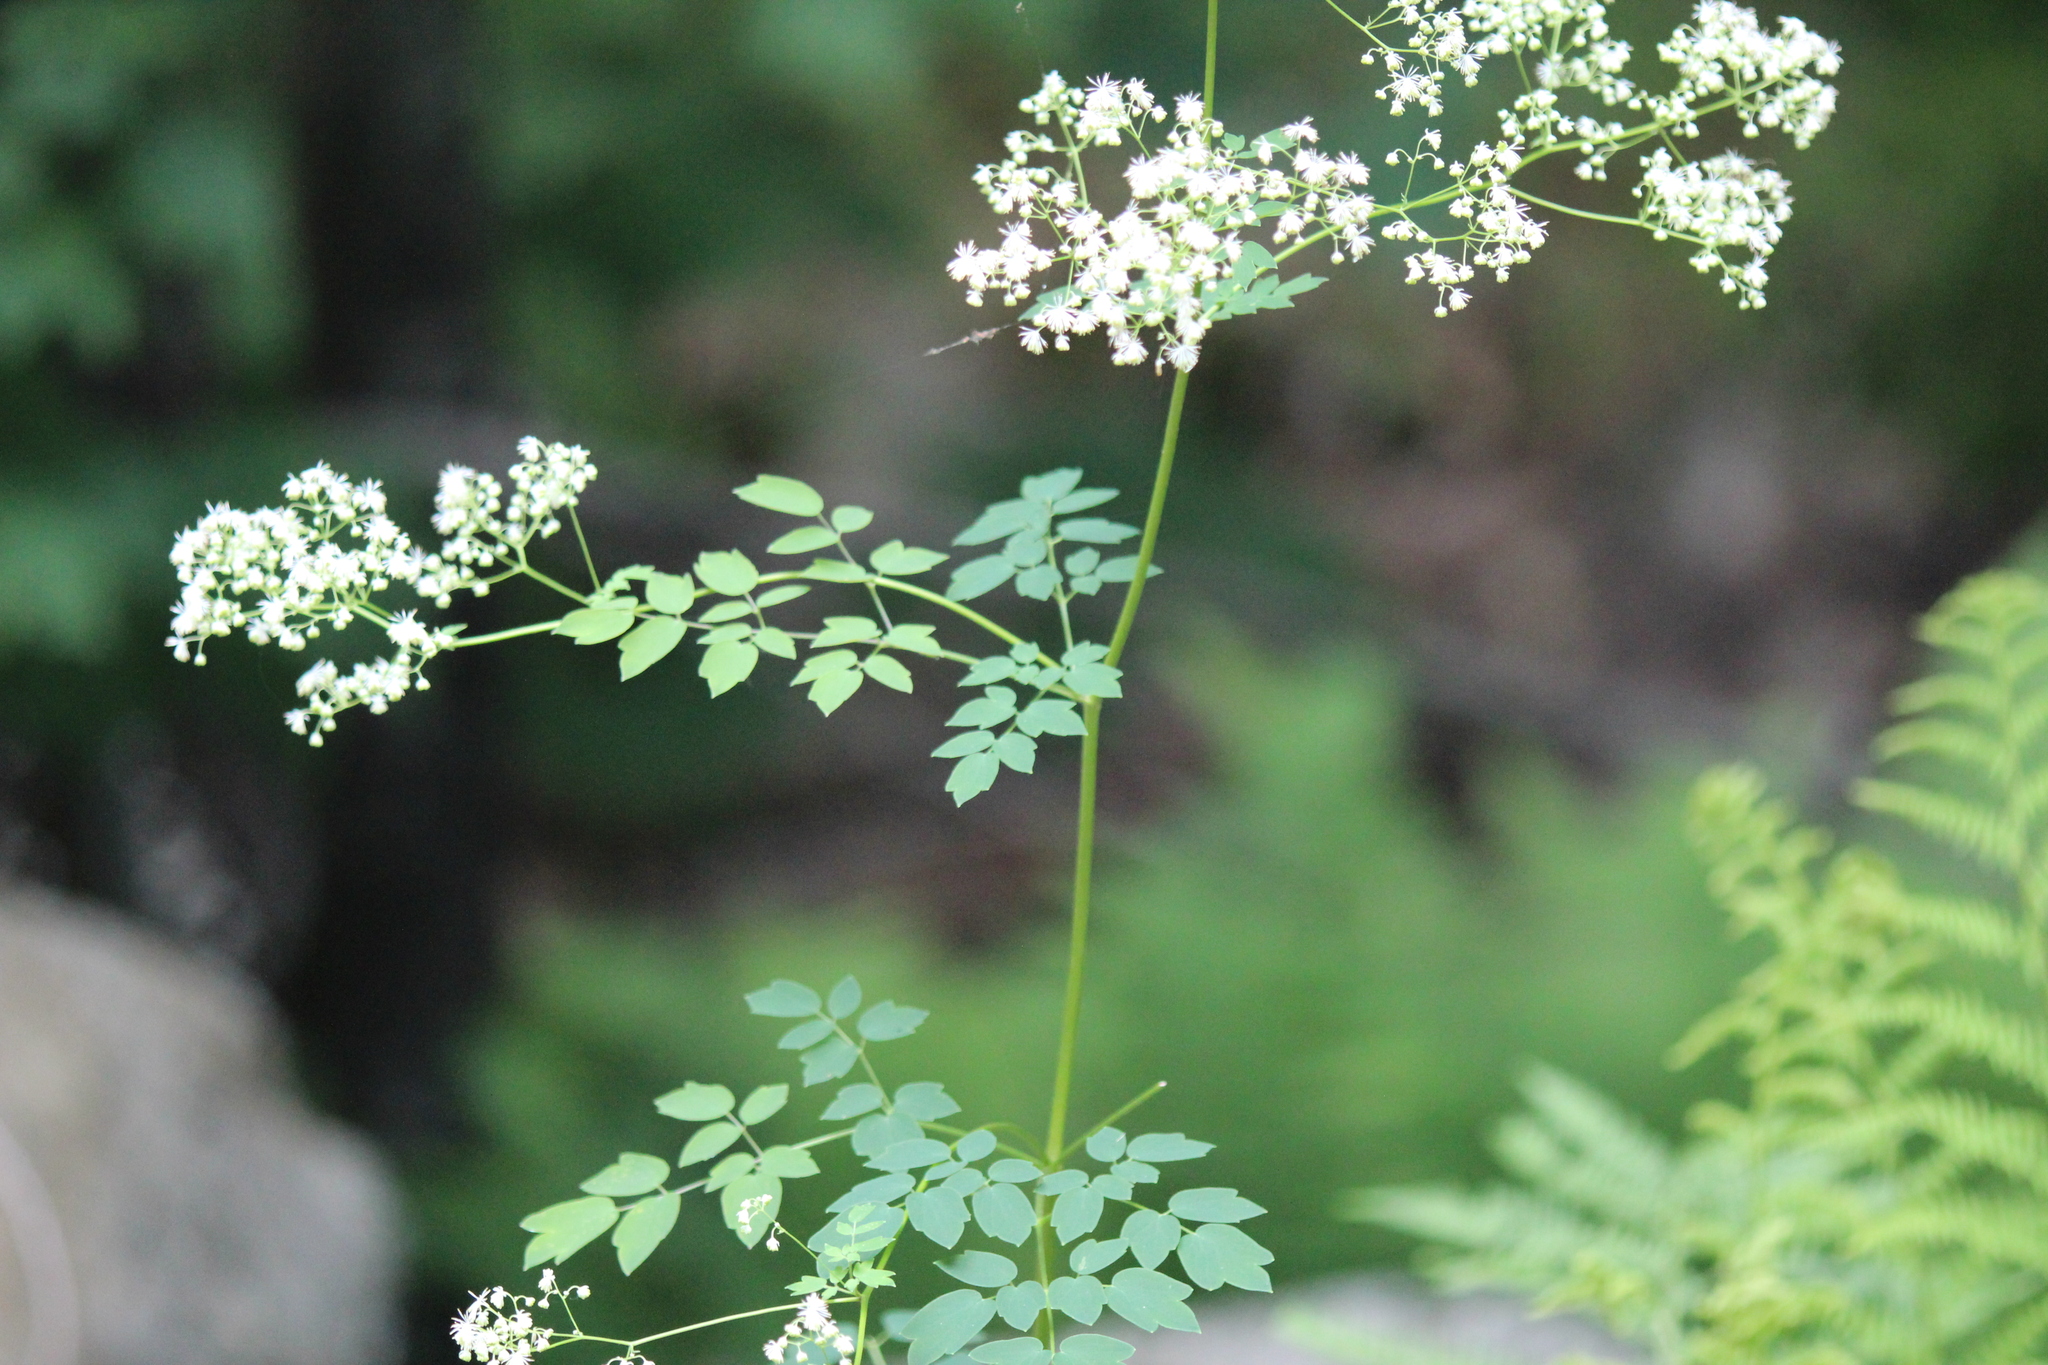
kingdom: Plantae
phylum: Tracheophyta
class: Magnoliopsida
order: Ranunculales
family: Ranunculaceae
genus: Thalictrum
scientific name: Thalictrum pubescens
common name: King-of-the-meadow
